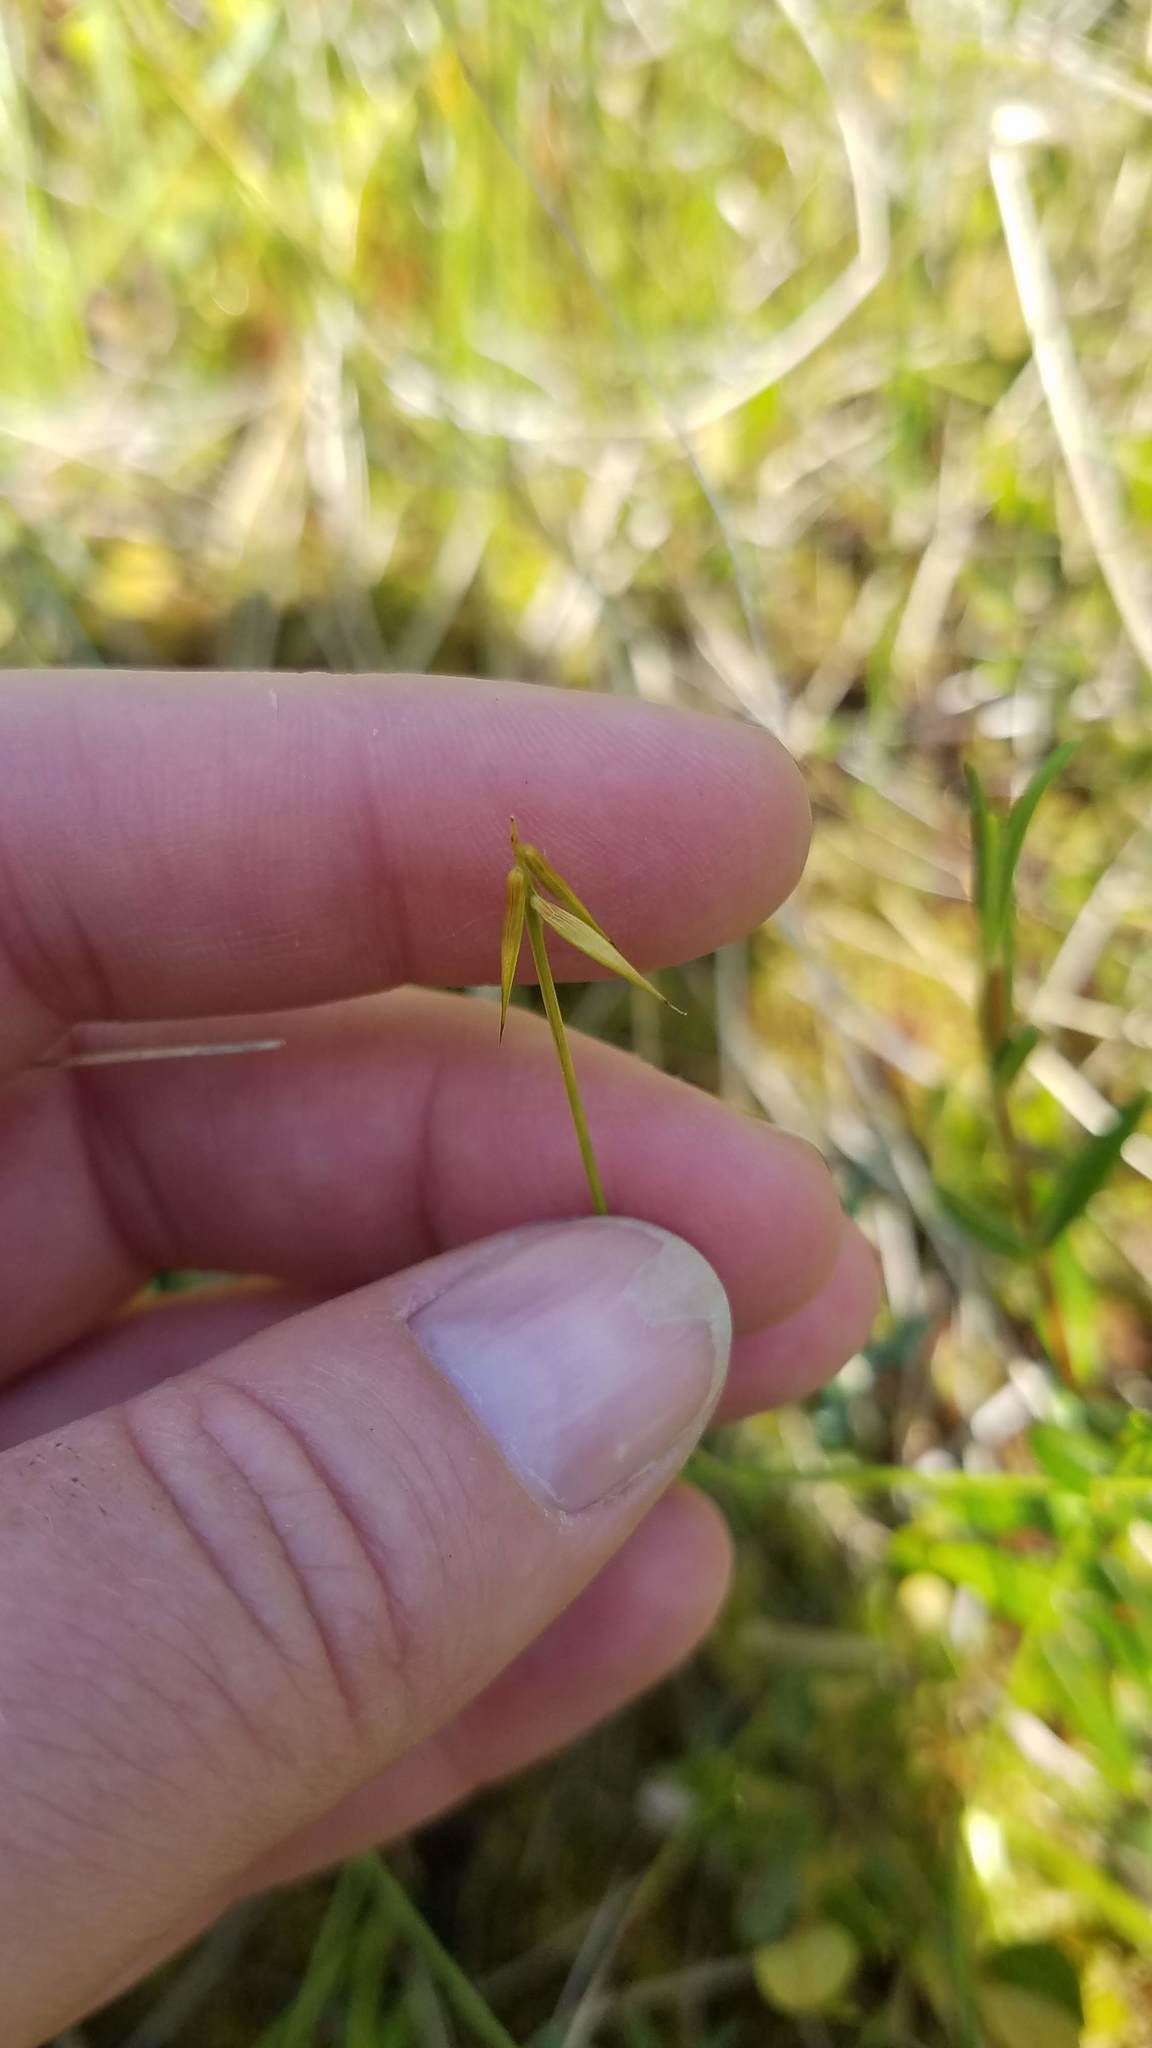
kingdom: Plantae
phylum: Tracheophyta
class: Liliopsida
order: Poales
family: Cyperaceae
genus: Carex
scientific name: Carex pauciflora
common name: Few-flowered sedge
